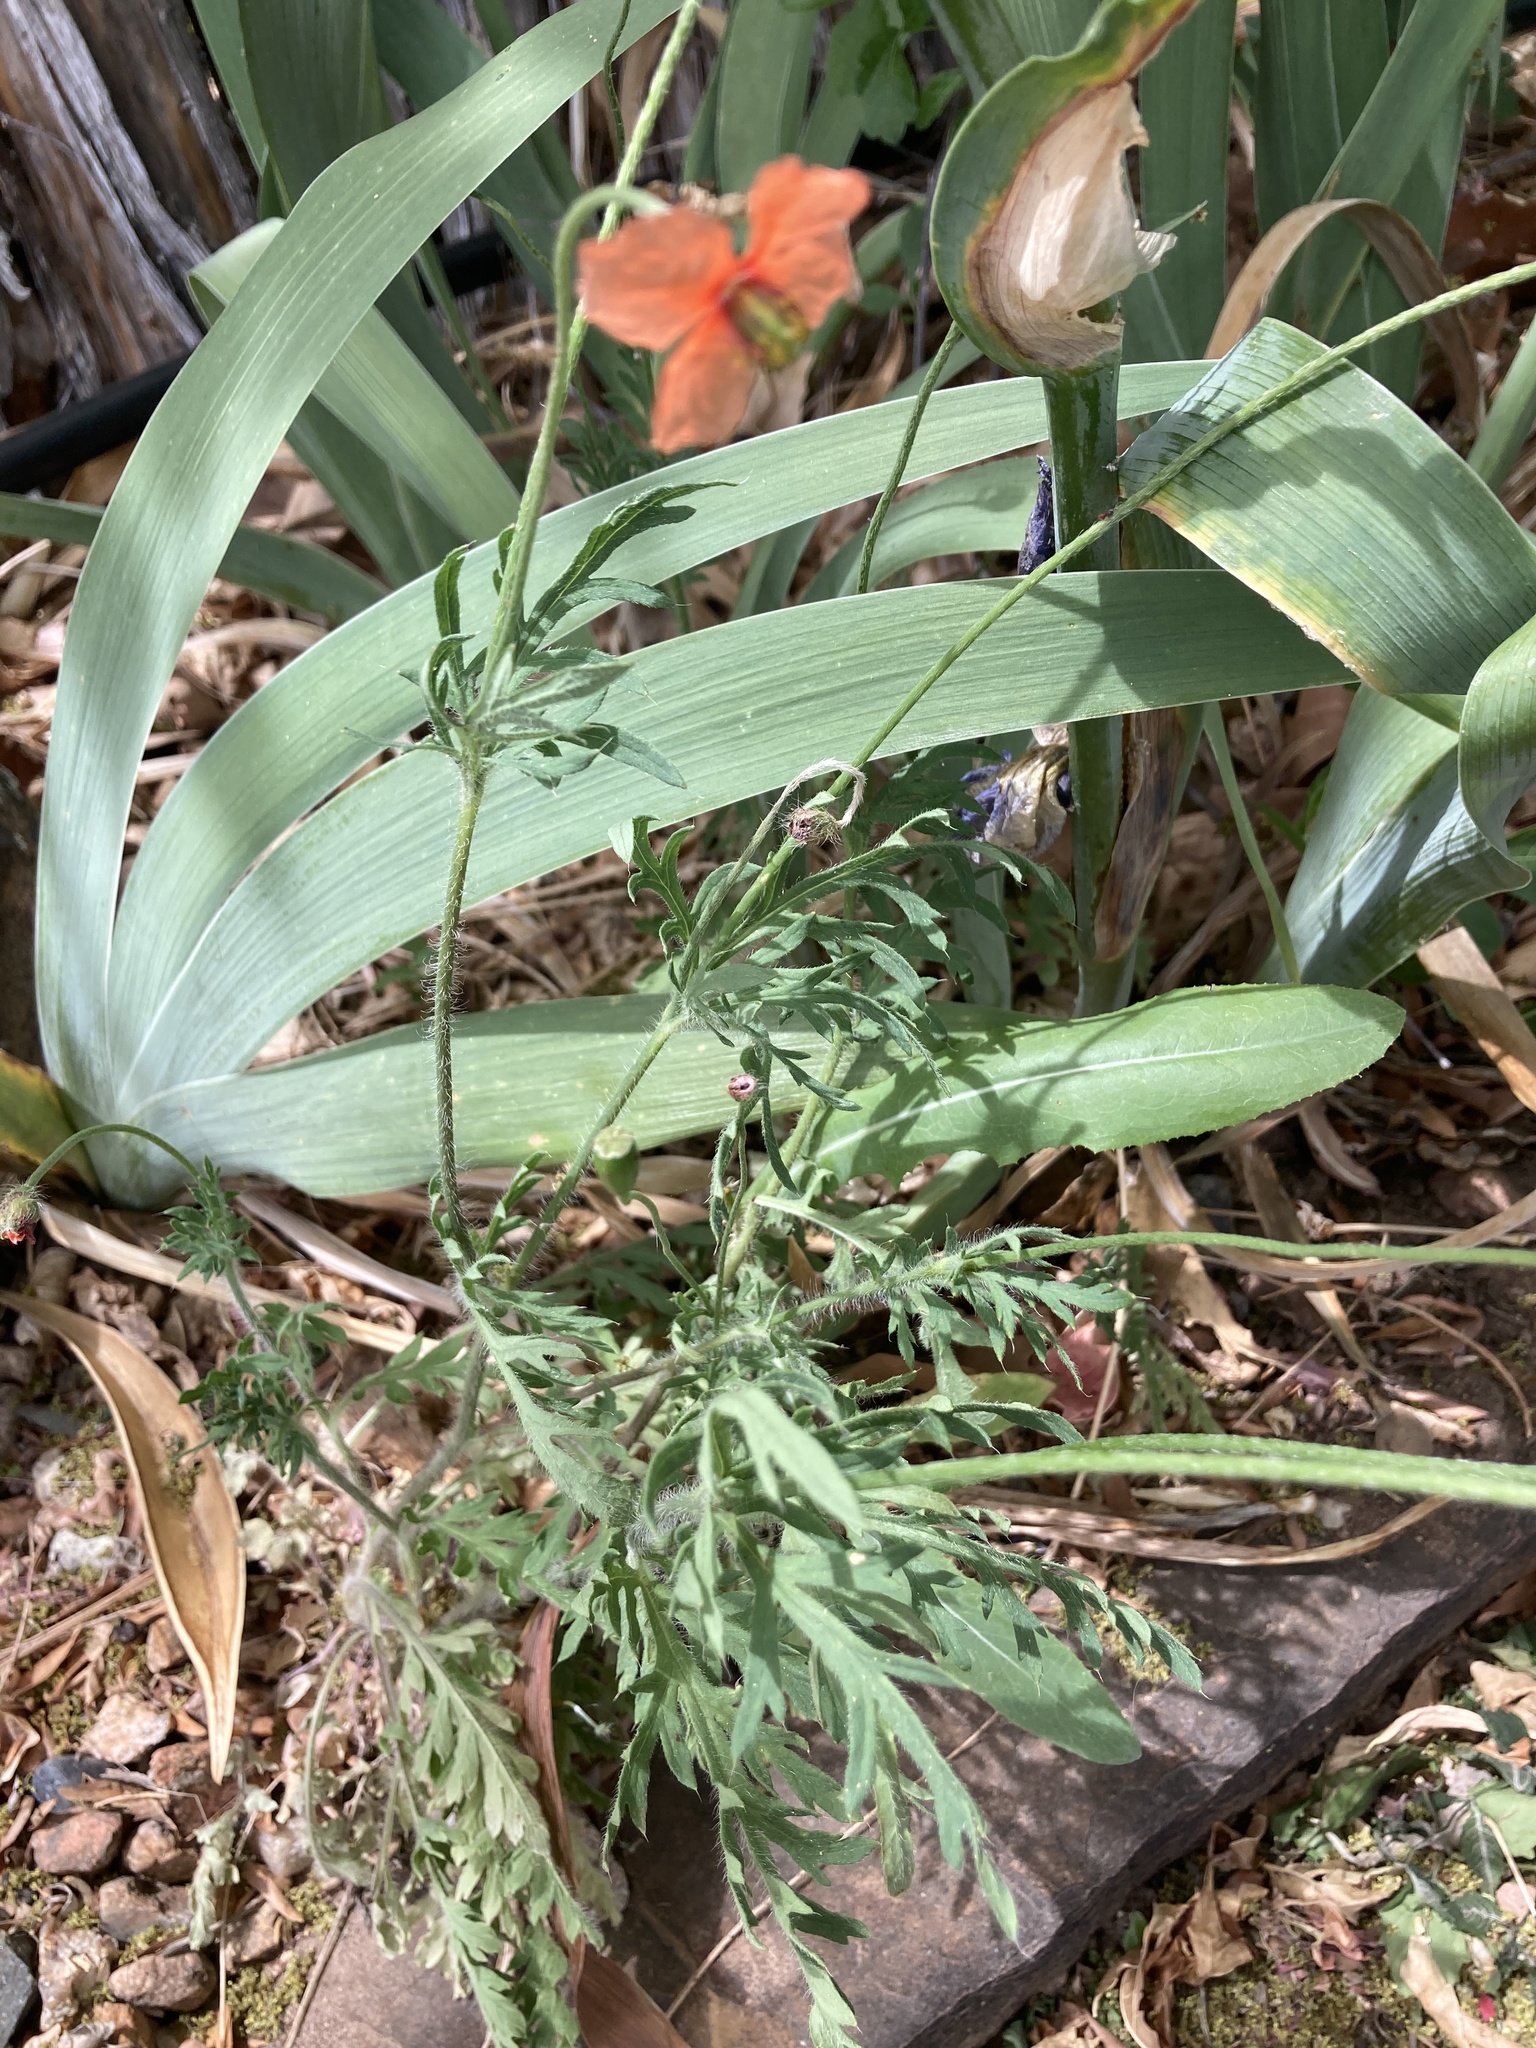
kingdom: Plantae
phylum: Tracheophyta
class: Magnoliopsida
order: Ranunculales
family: Papaveraceae
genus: Papaver
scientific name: Papaver dubium
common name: Long-headed poppy
